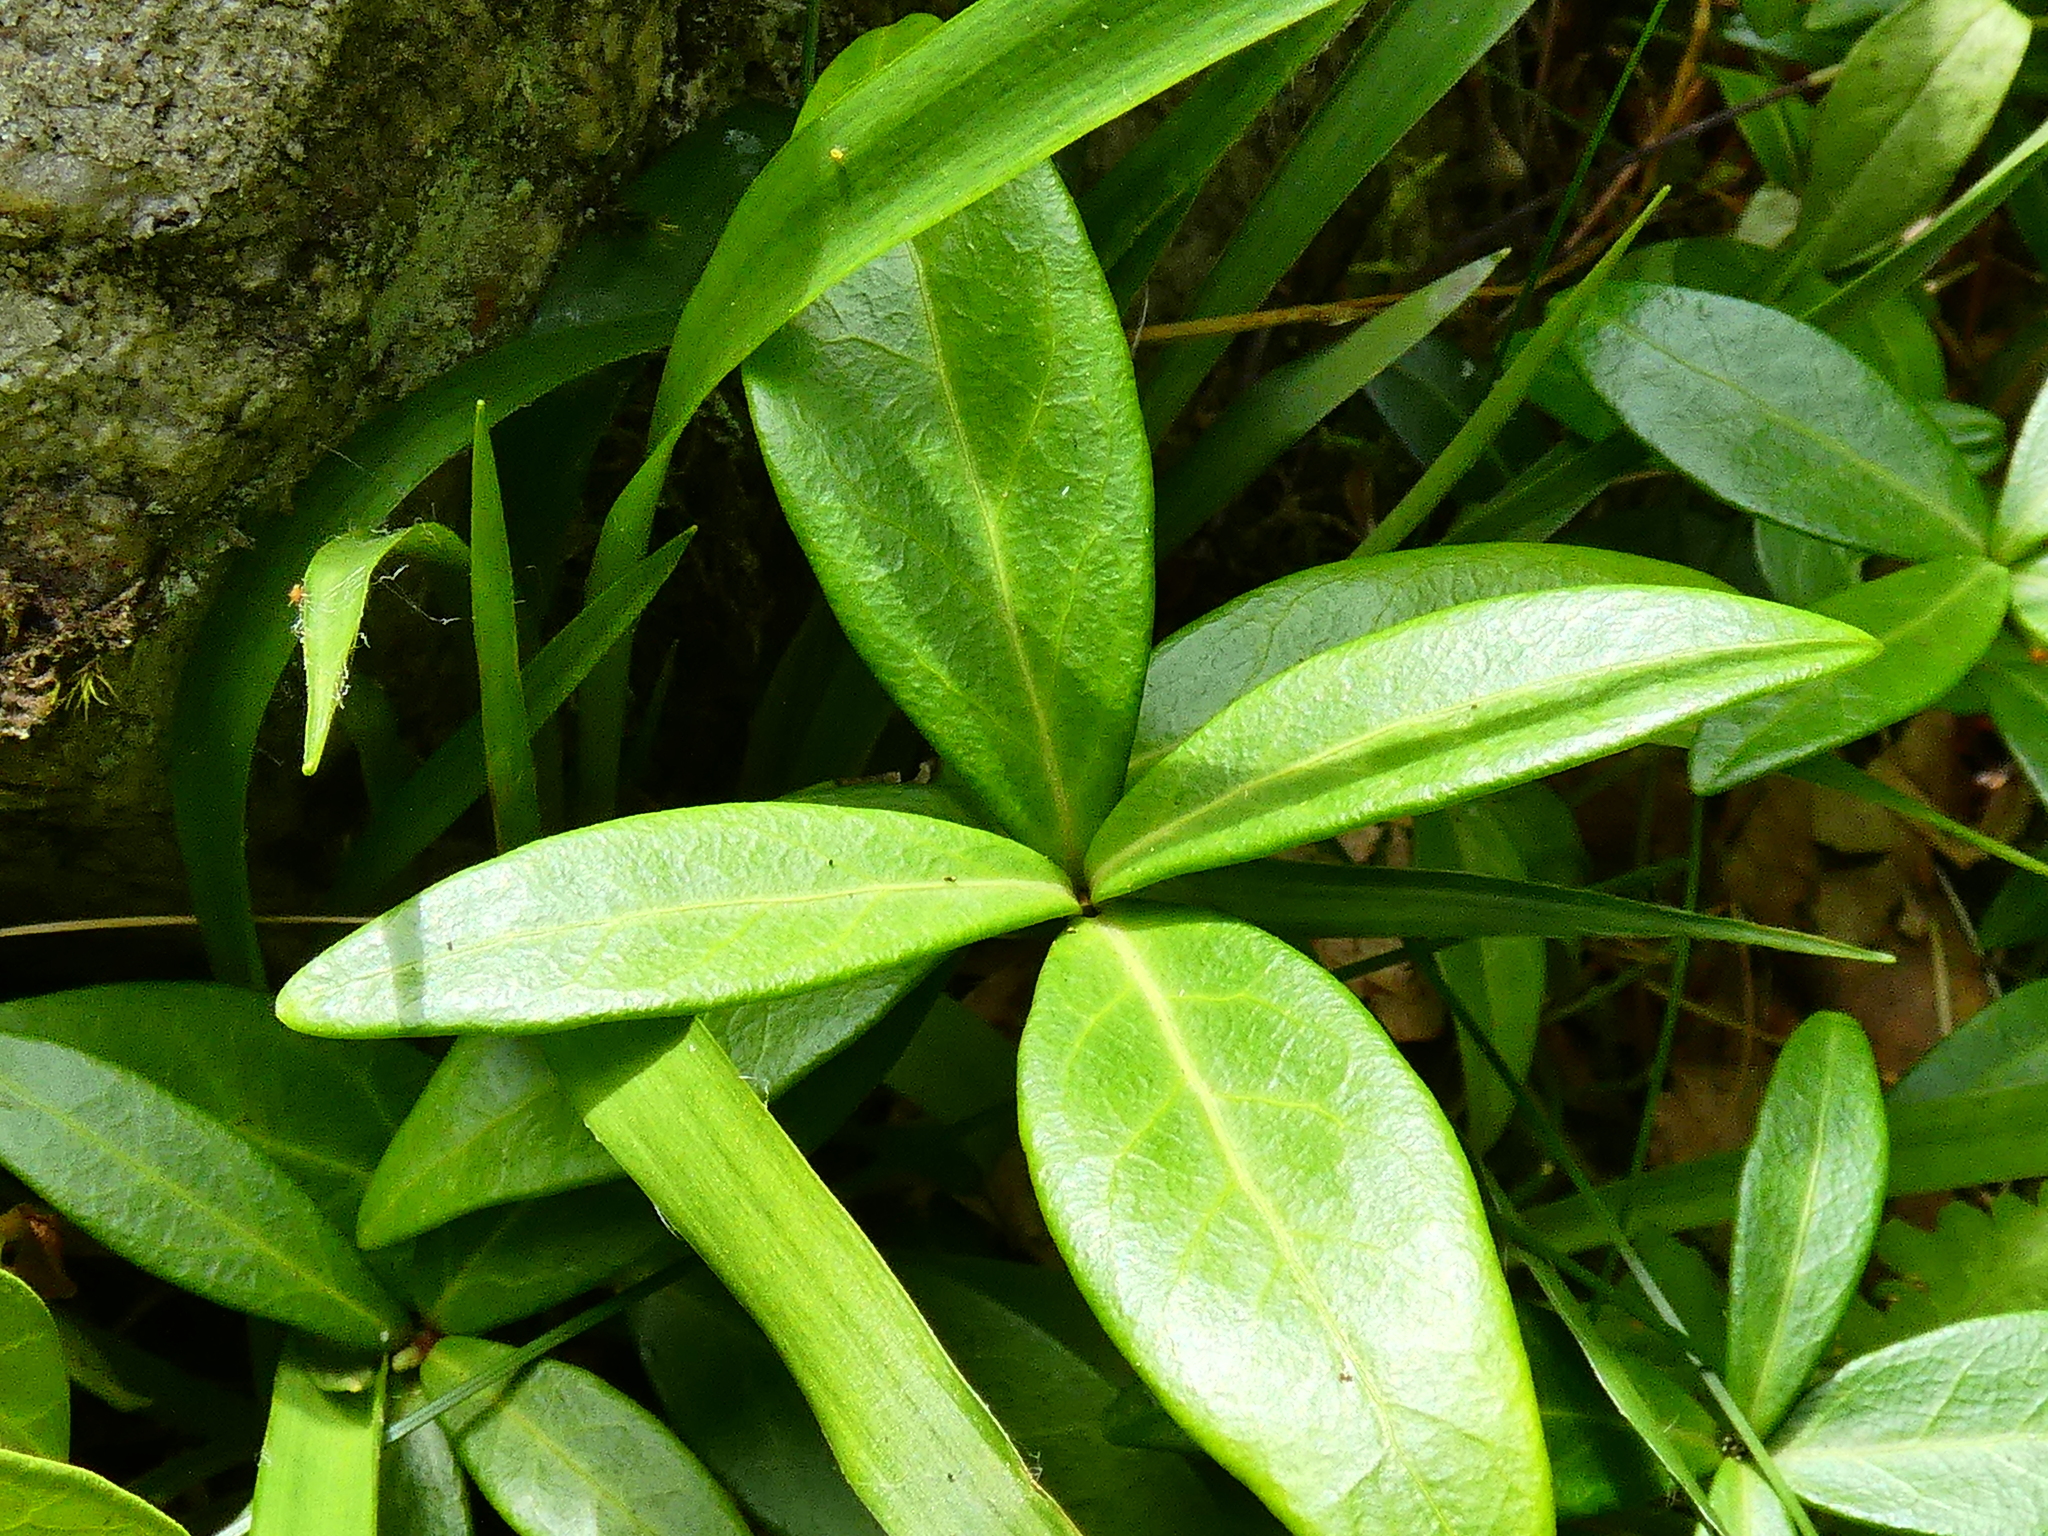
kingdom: Plantae
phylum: Tracheophyta
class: Magnoliopsida
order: Gentianales
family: Apocynaceae
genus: Vinca
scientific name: Vinca minor
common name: Lesser periwinkle
